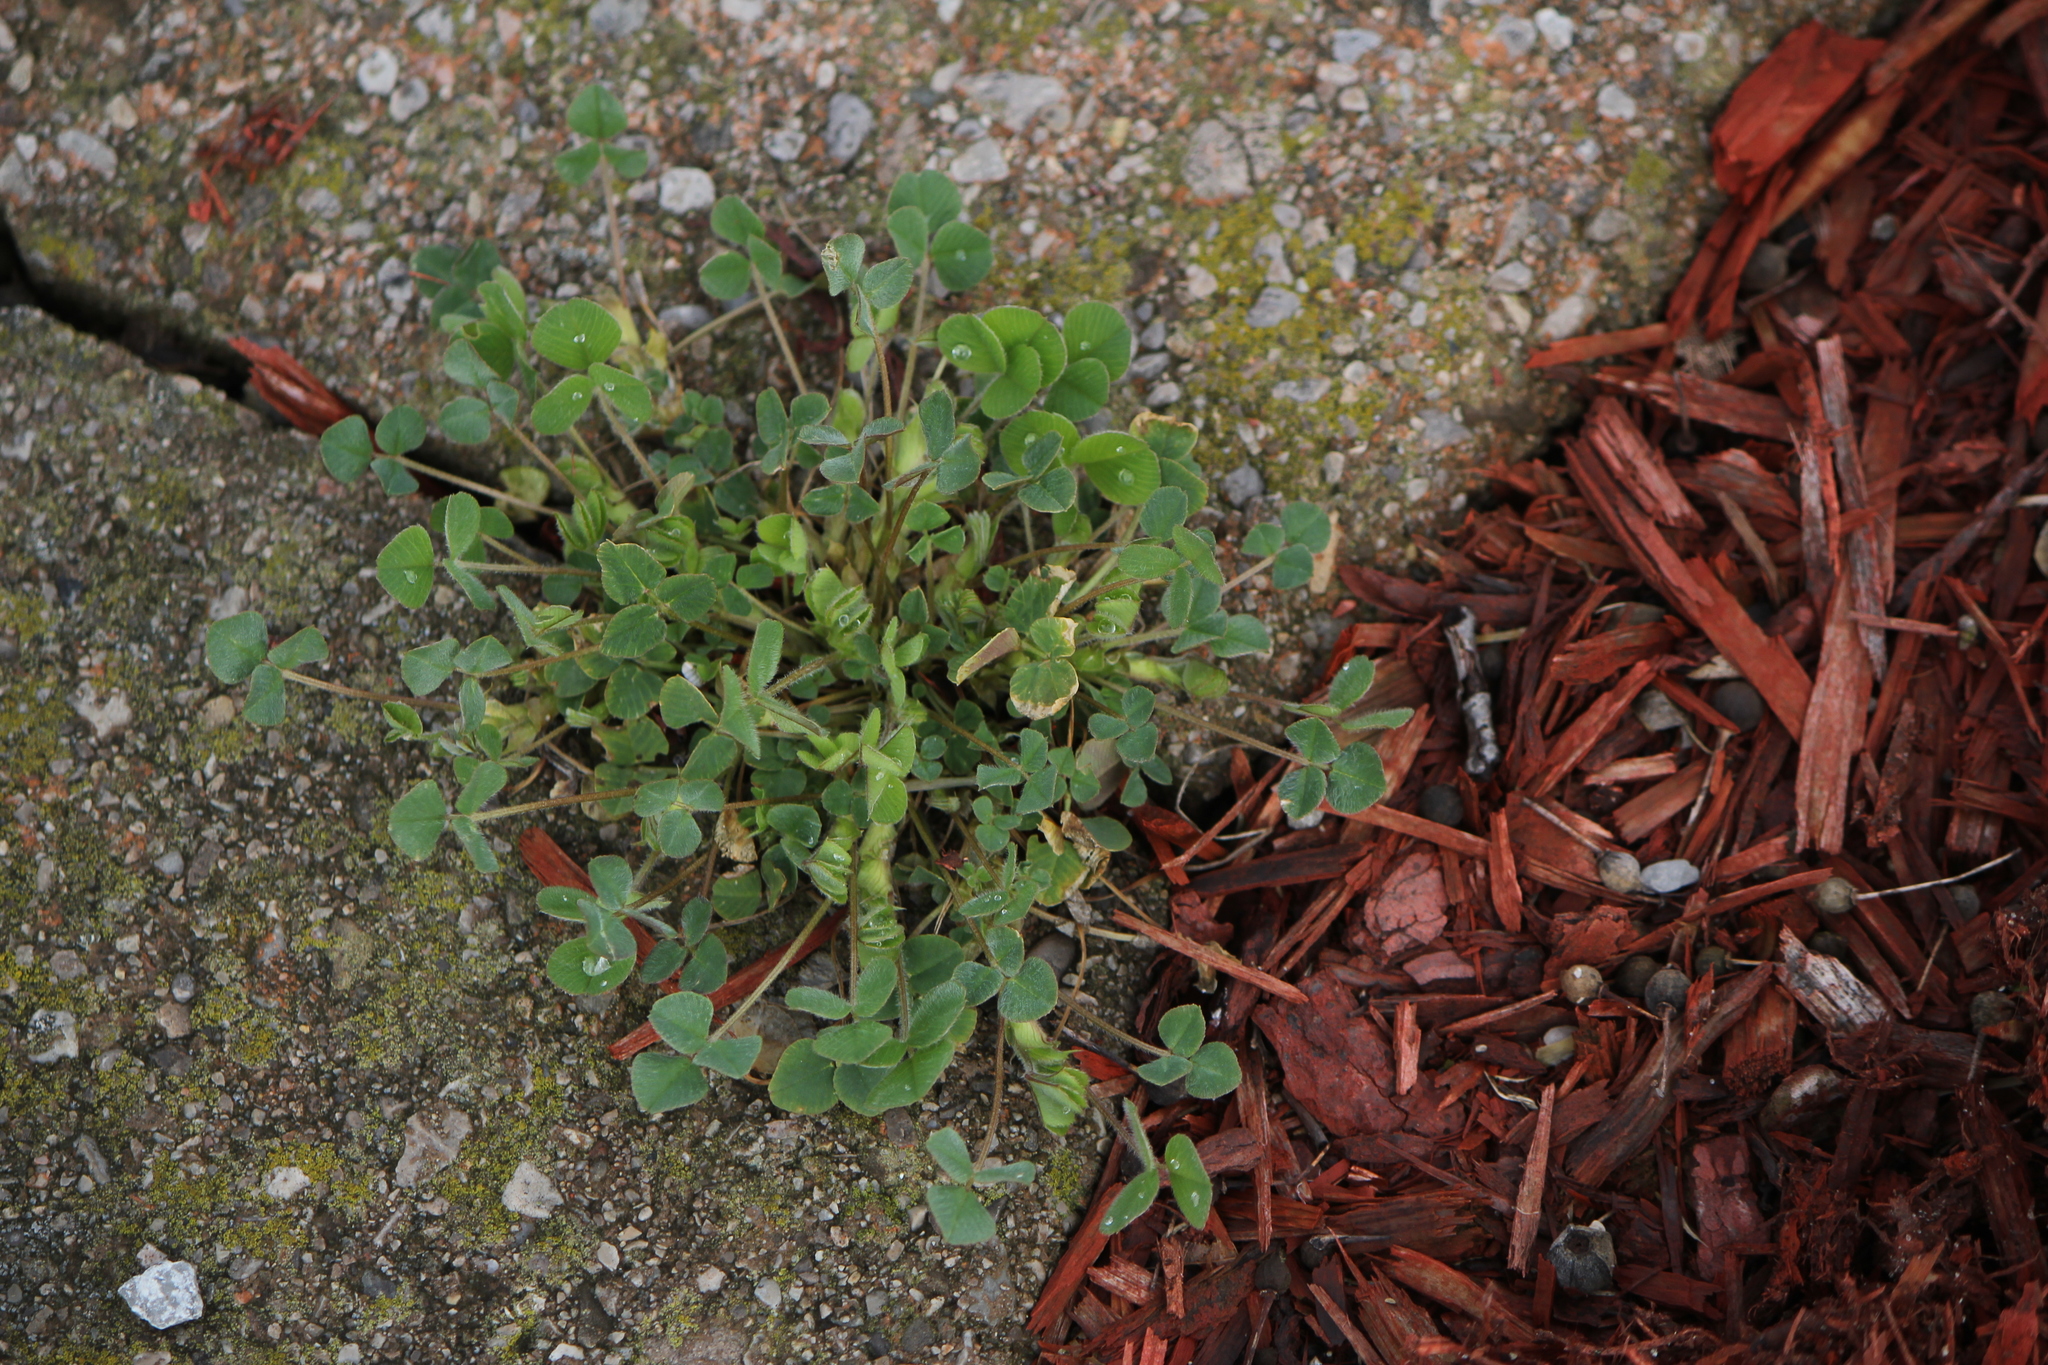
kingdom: Plantae
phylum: Tracheophyta
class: Magnoliopsida
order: Fabales
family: Fabaceae
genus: Medicago
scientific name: Medicago lupulina
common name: Black medick
